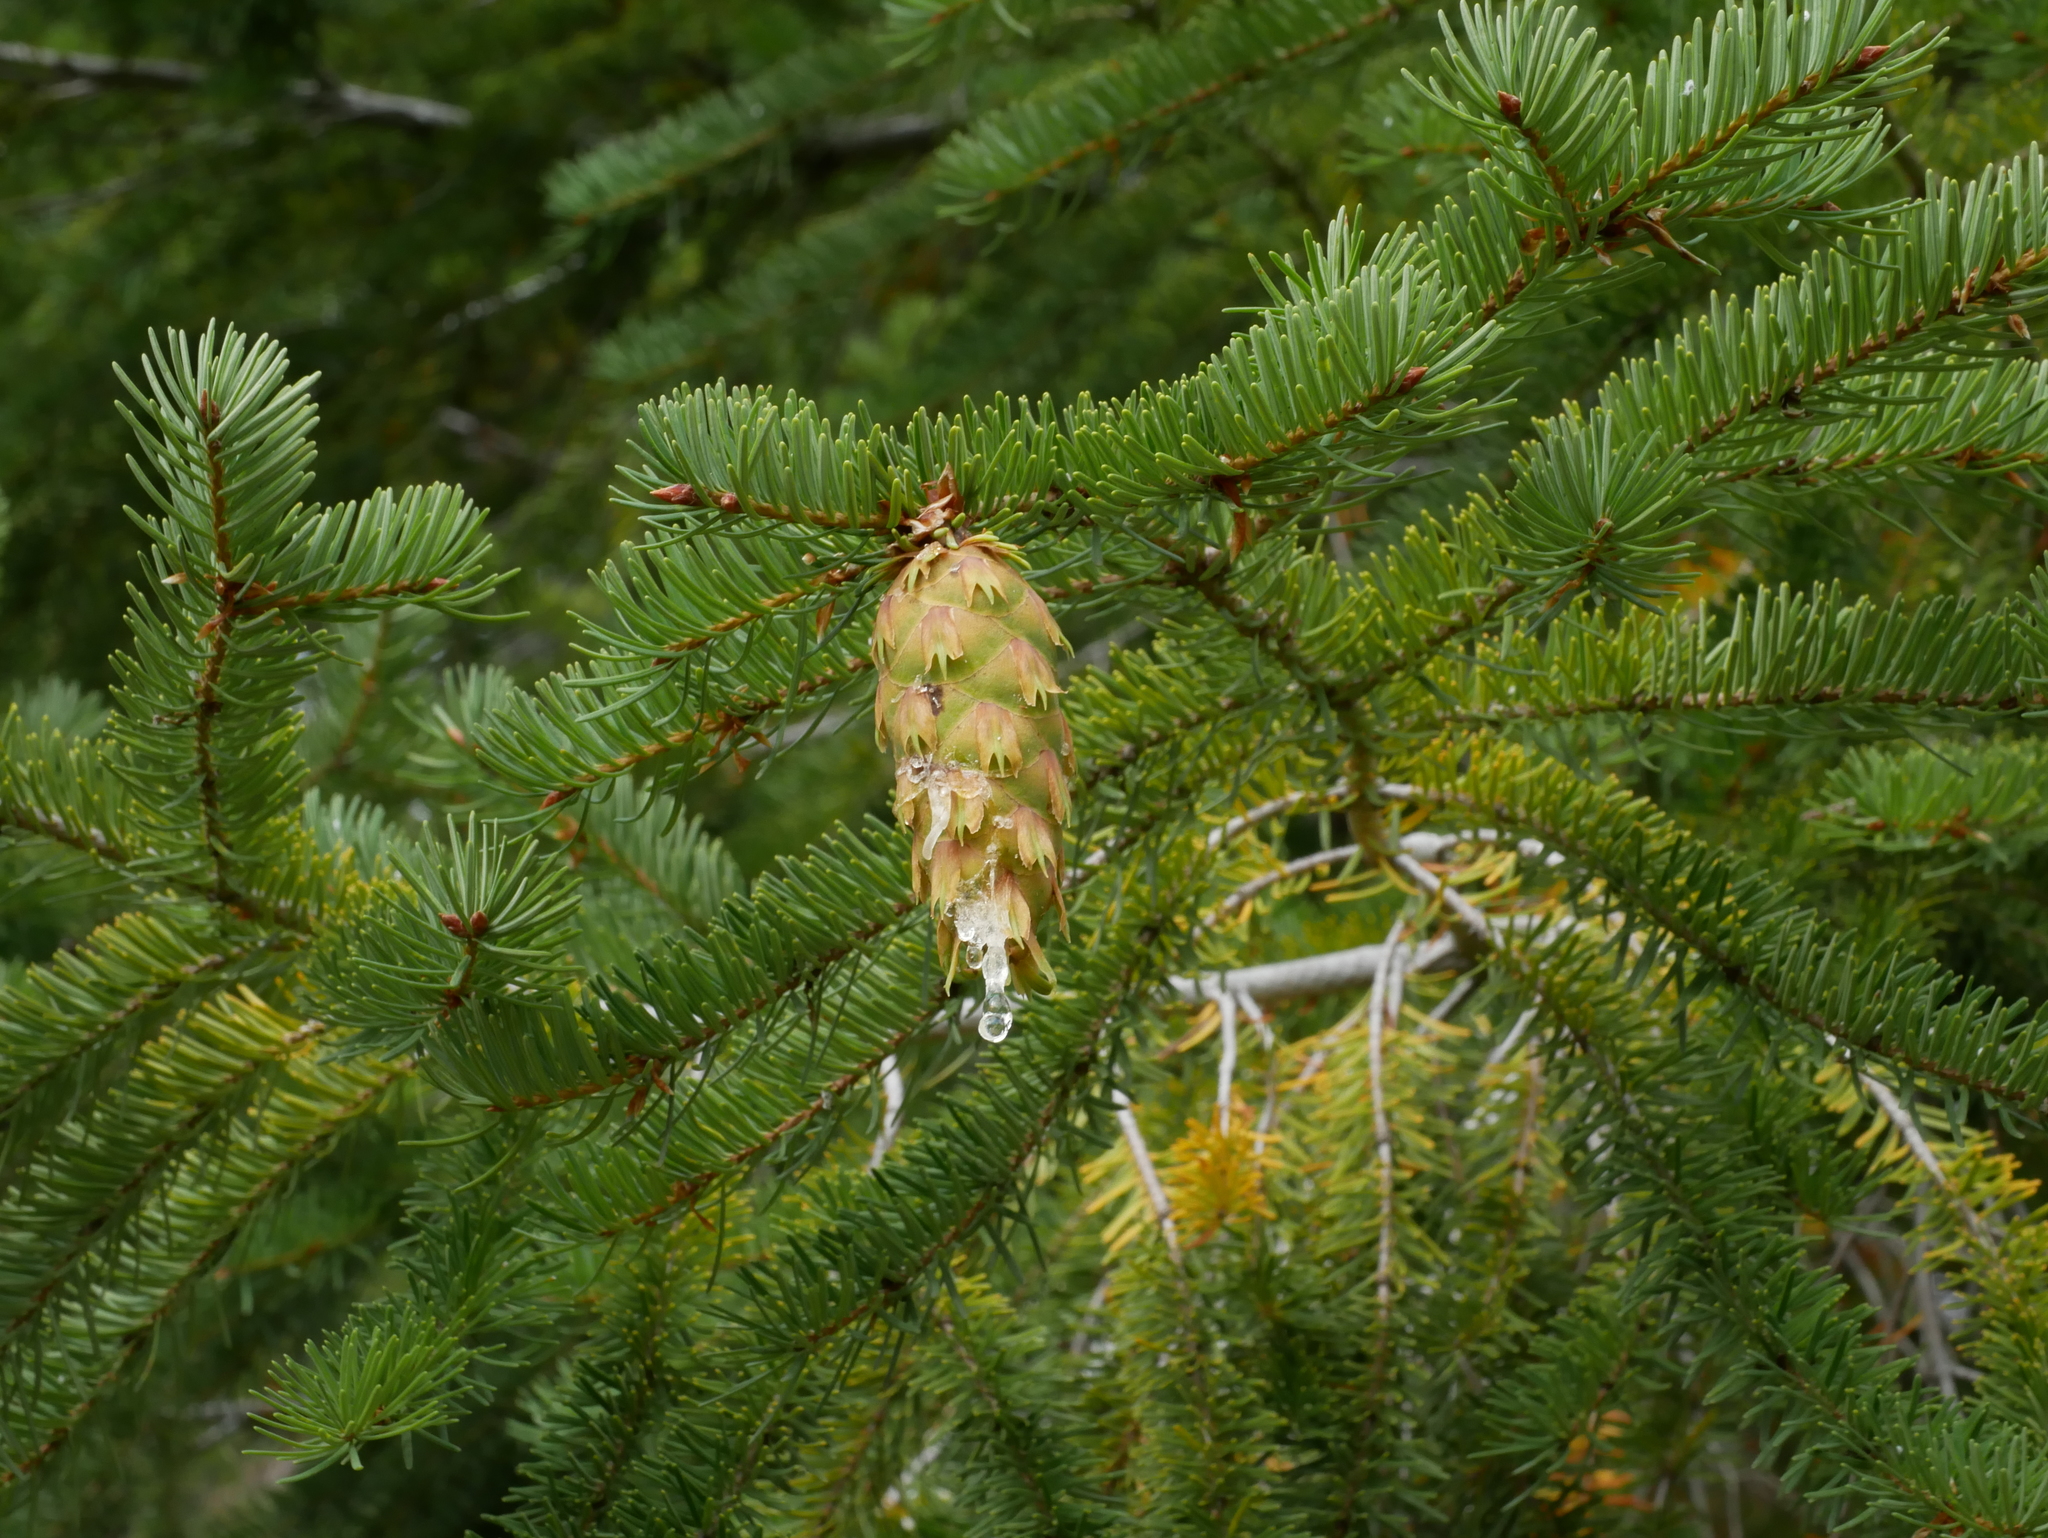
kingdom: Plantae
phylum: Tracheophyta
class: Pinopsida
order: Pinales
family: Pinaceae
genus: Pseudotsuga
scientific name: Pseudotsuga menziesii
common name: Douglas fir
